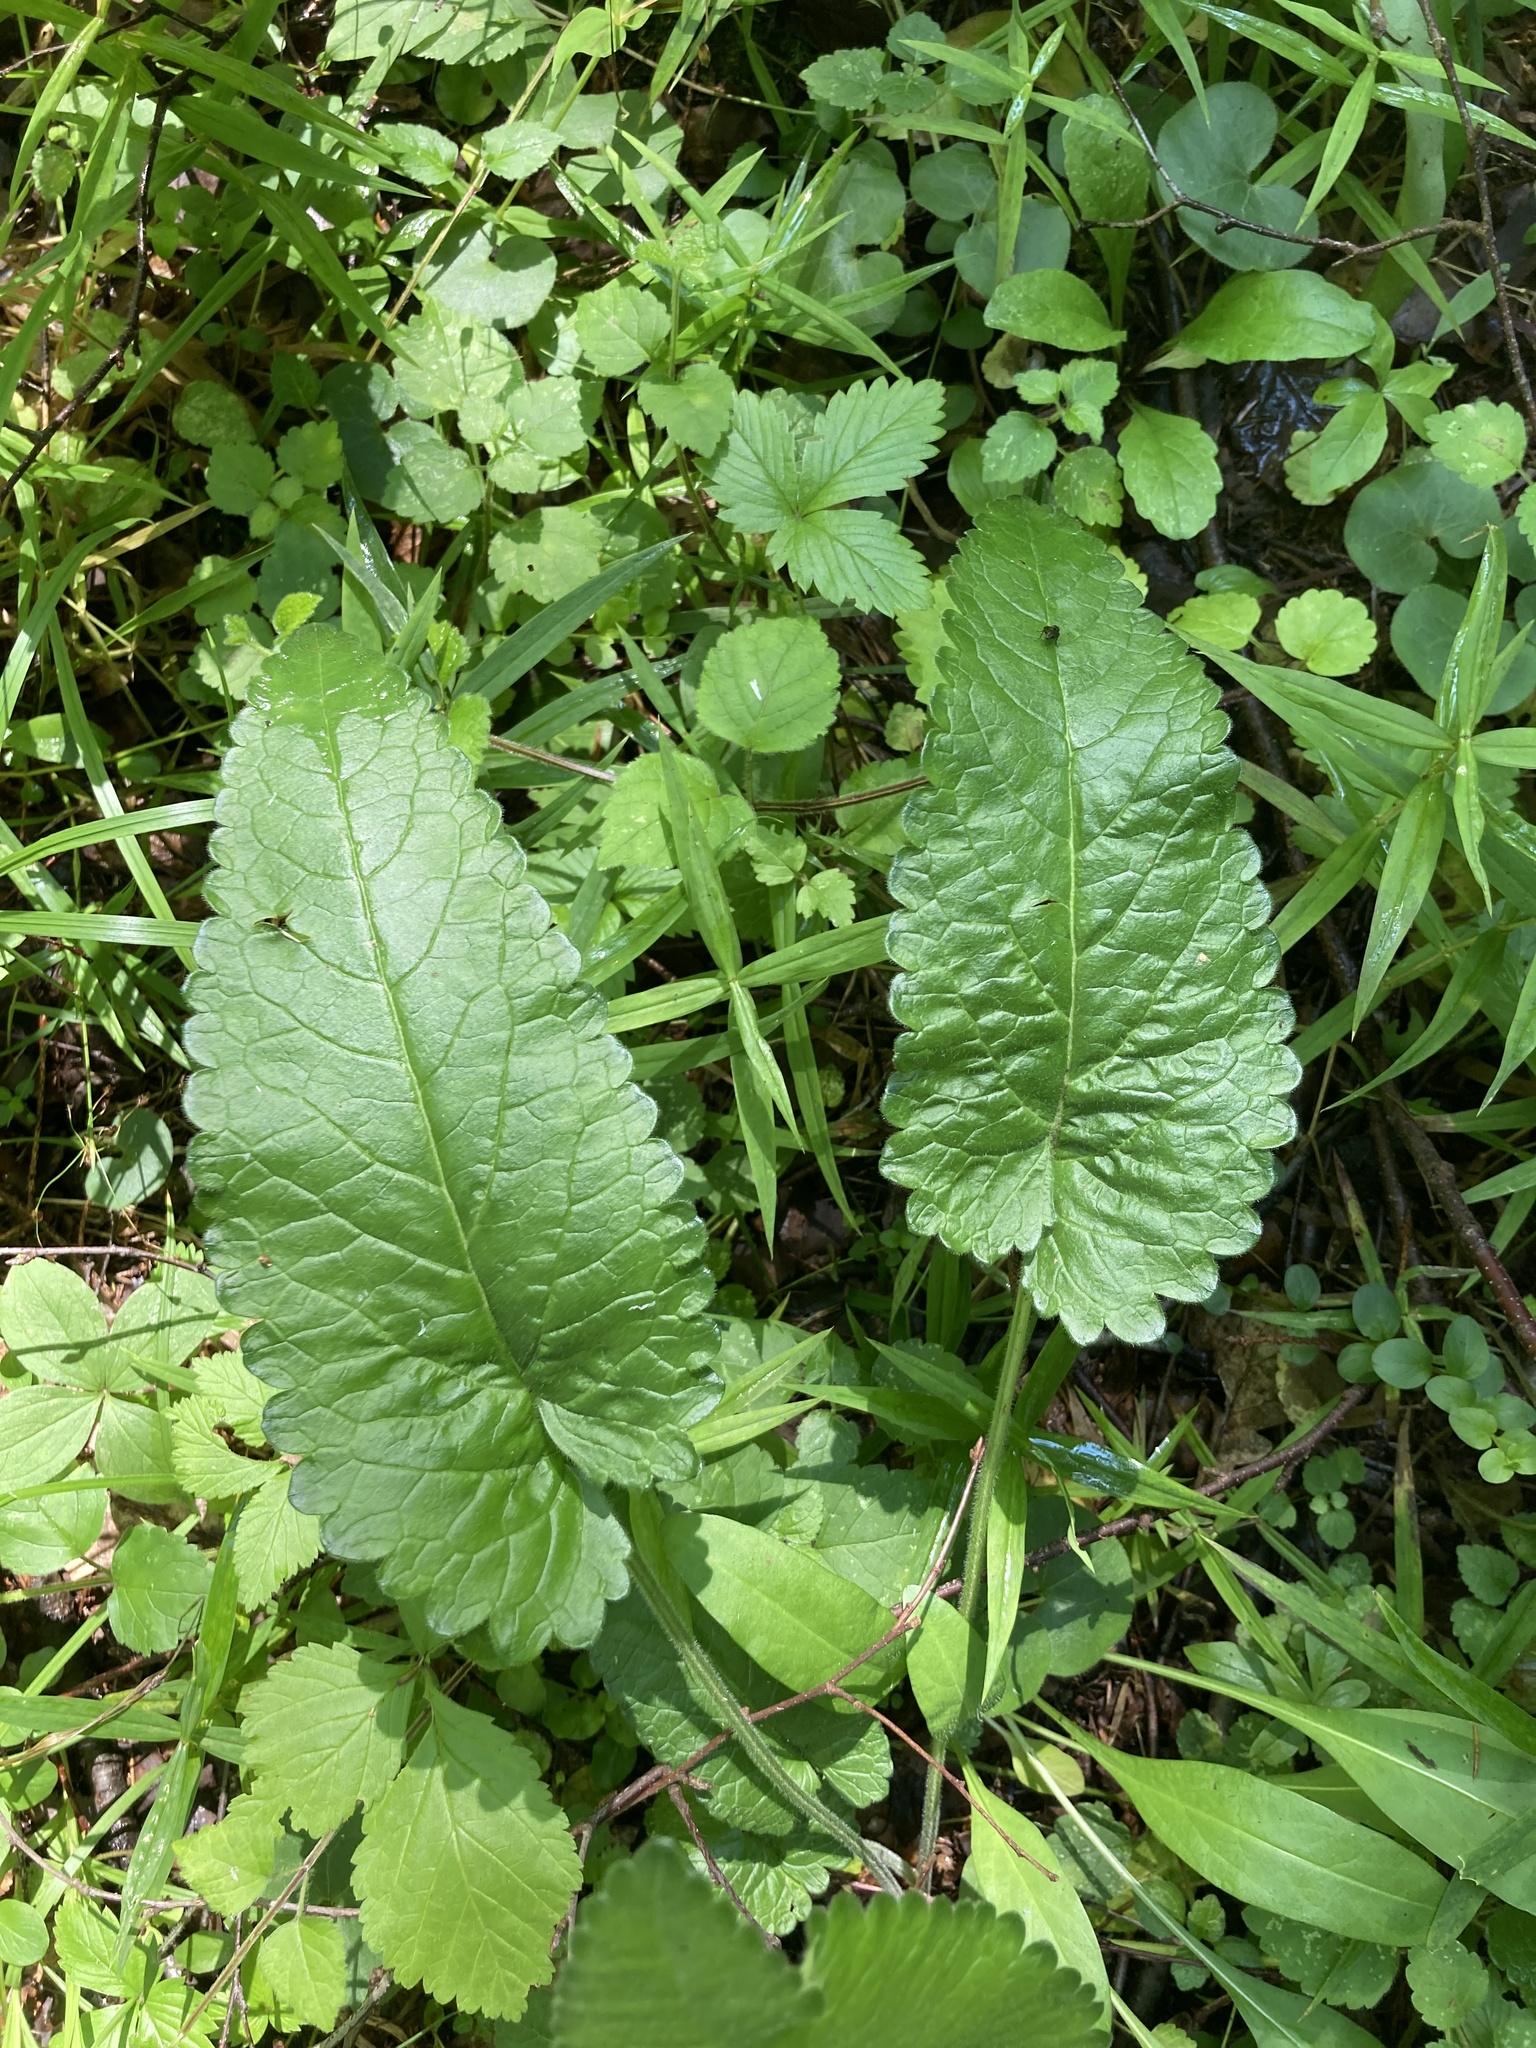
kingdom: Plantae
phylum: Tracheophyta
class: Magnoliopsida
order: Lamiales
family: Lamiaceae
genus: Betonica
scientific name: Betonica officinalis
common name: Bishop's-wort
